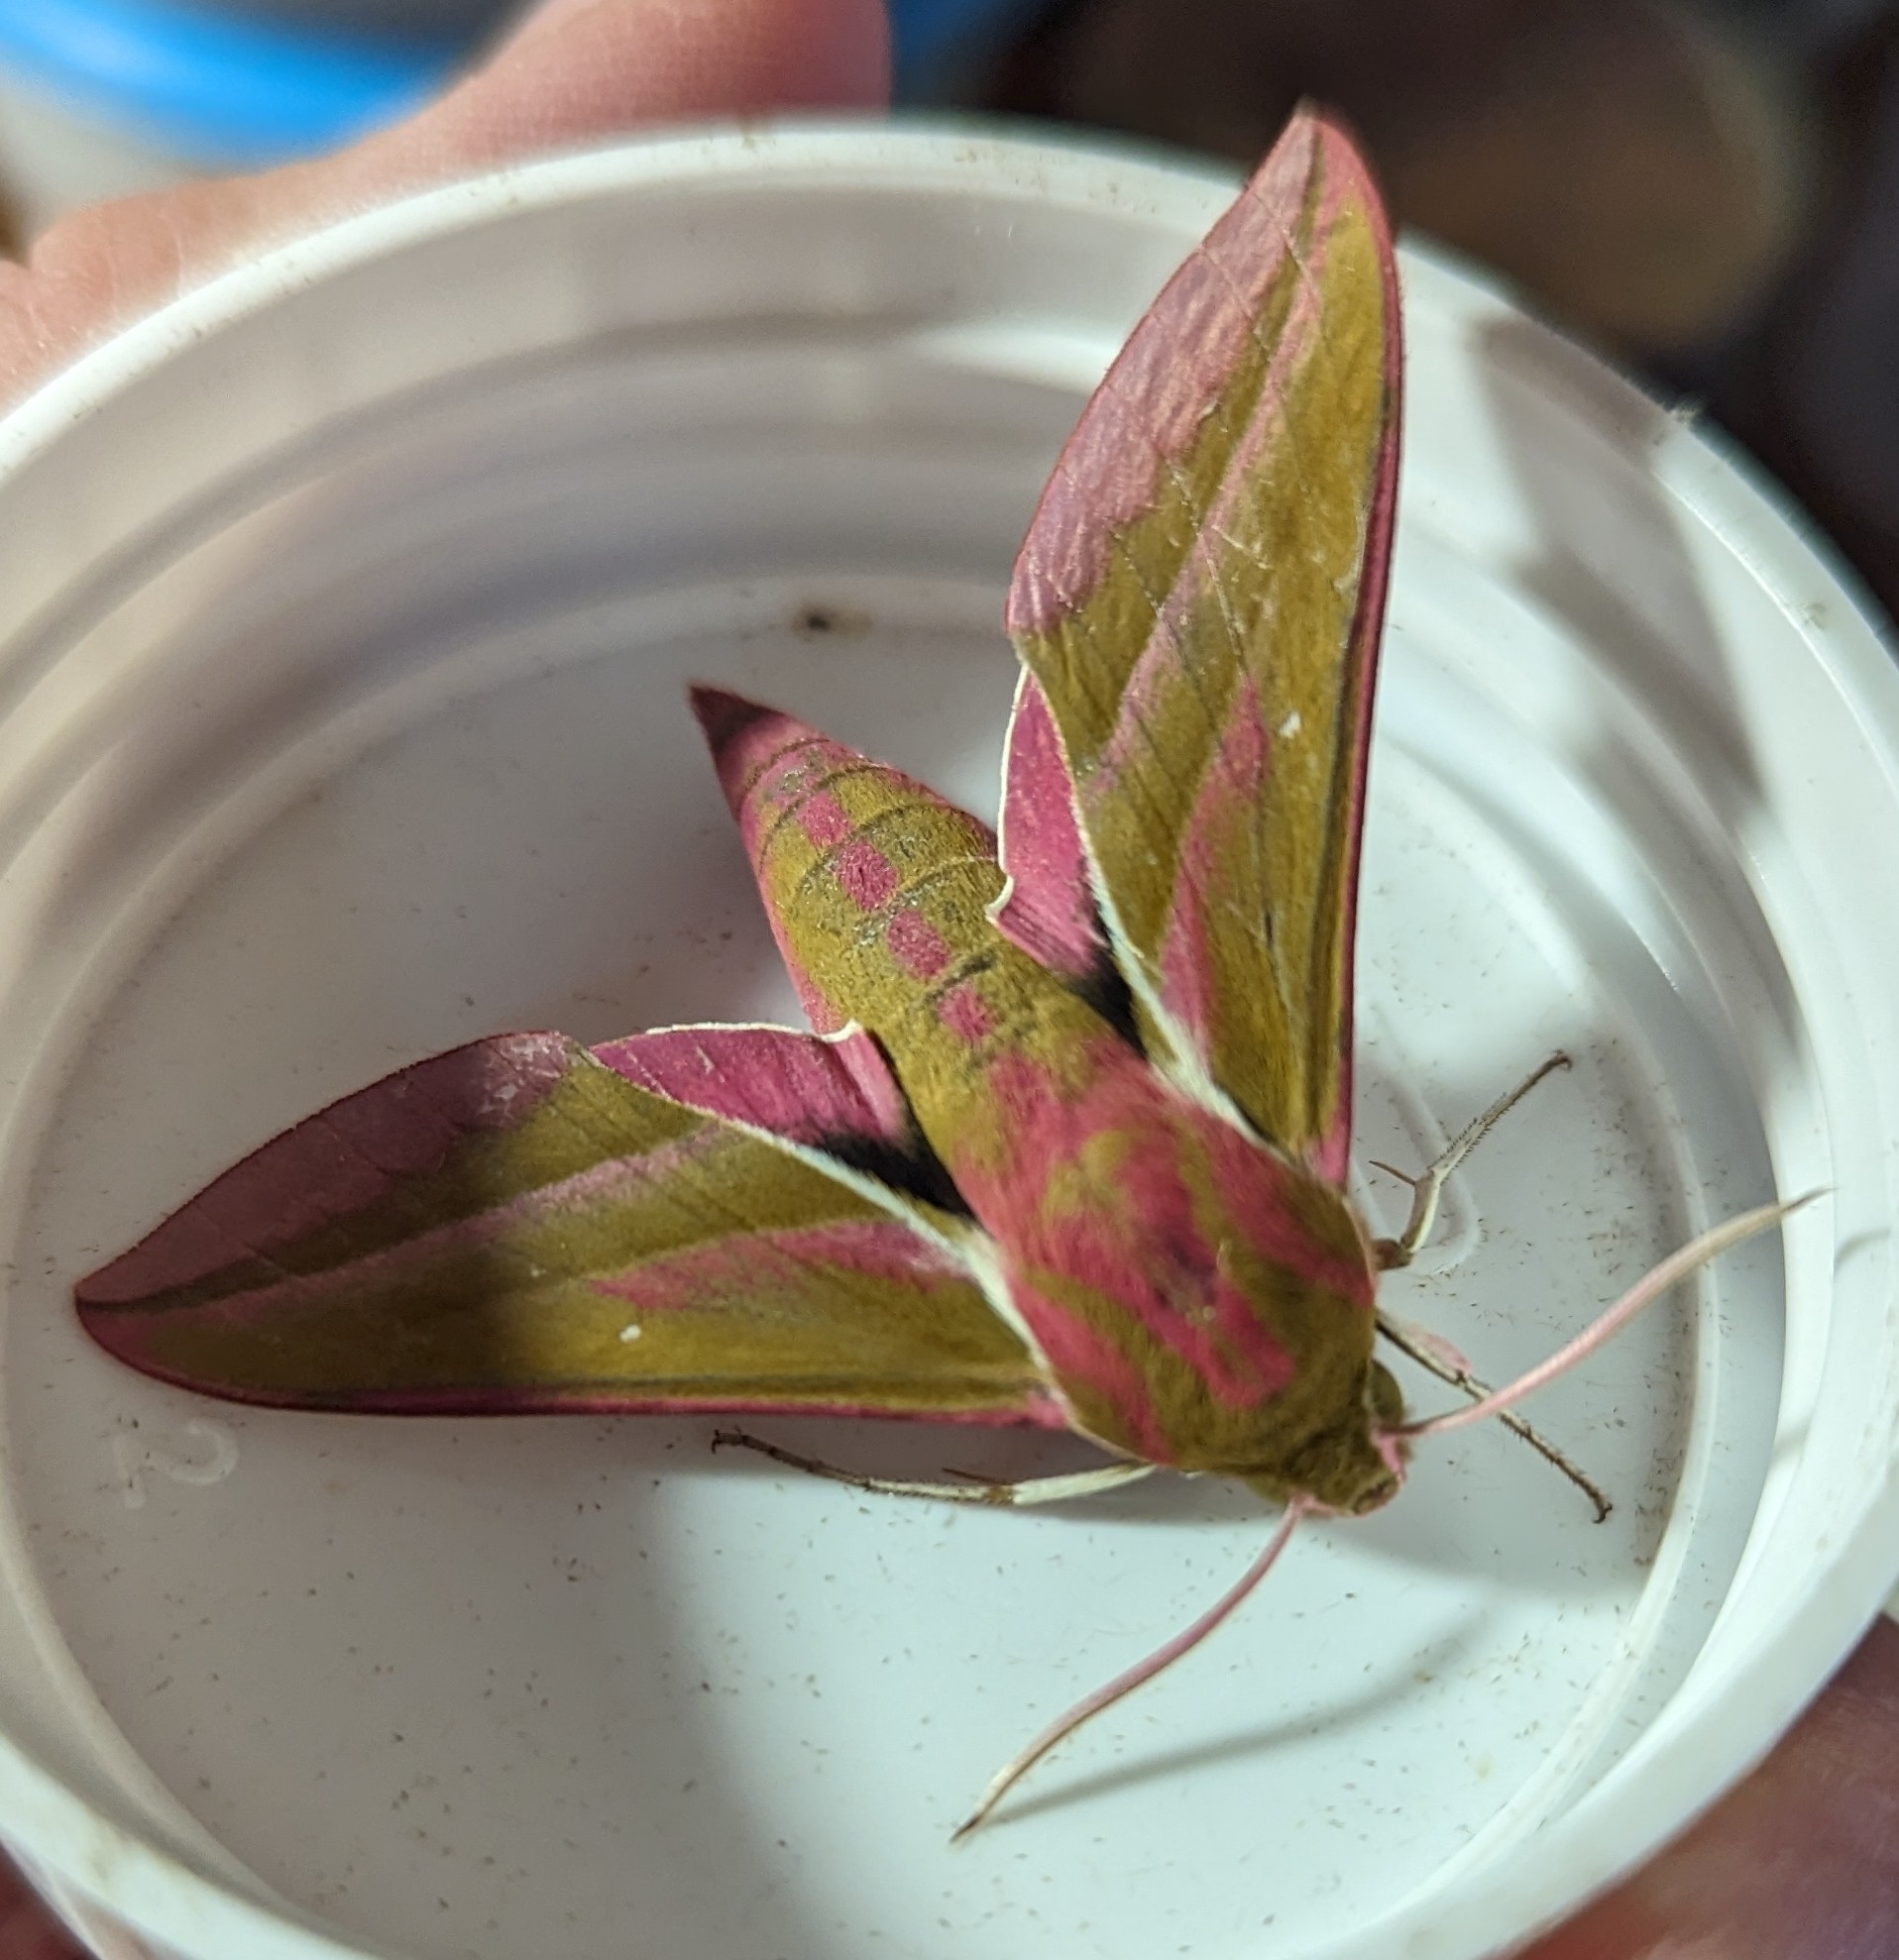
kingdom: Animalia
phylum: Arthropoda
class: Insecta
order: Lepidoptera
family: Sphingidae
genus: Deilephila
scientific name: Deilephila elpenor
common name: Elephant hawk-moth
